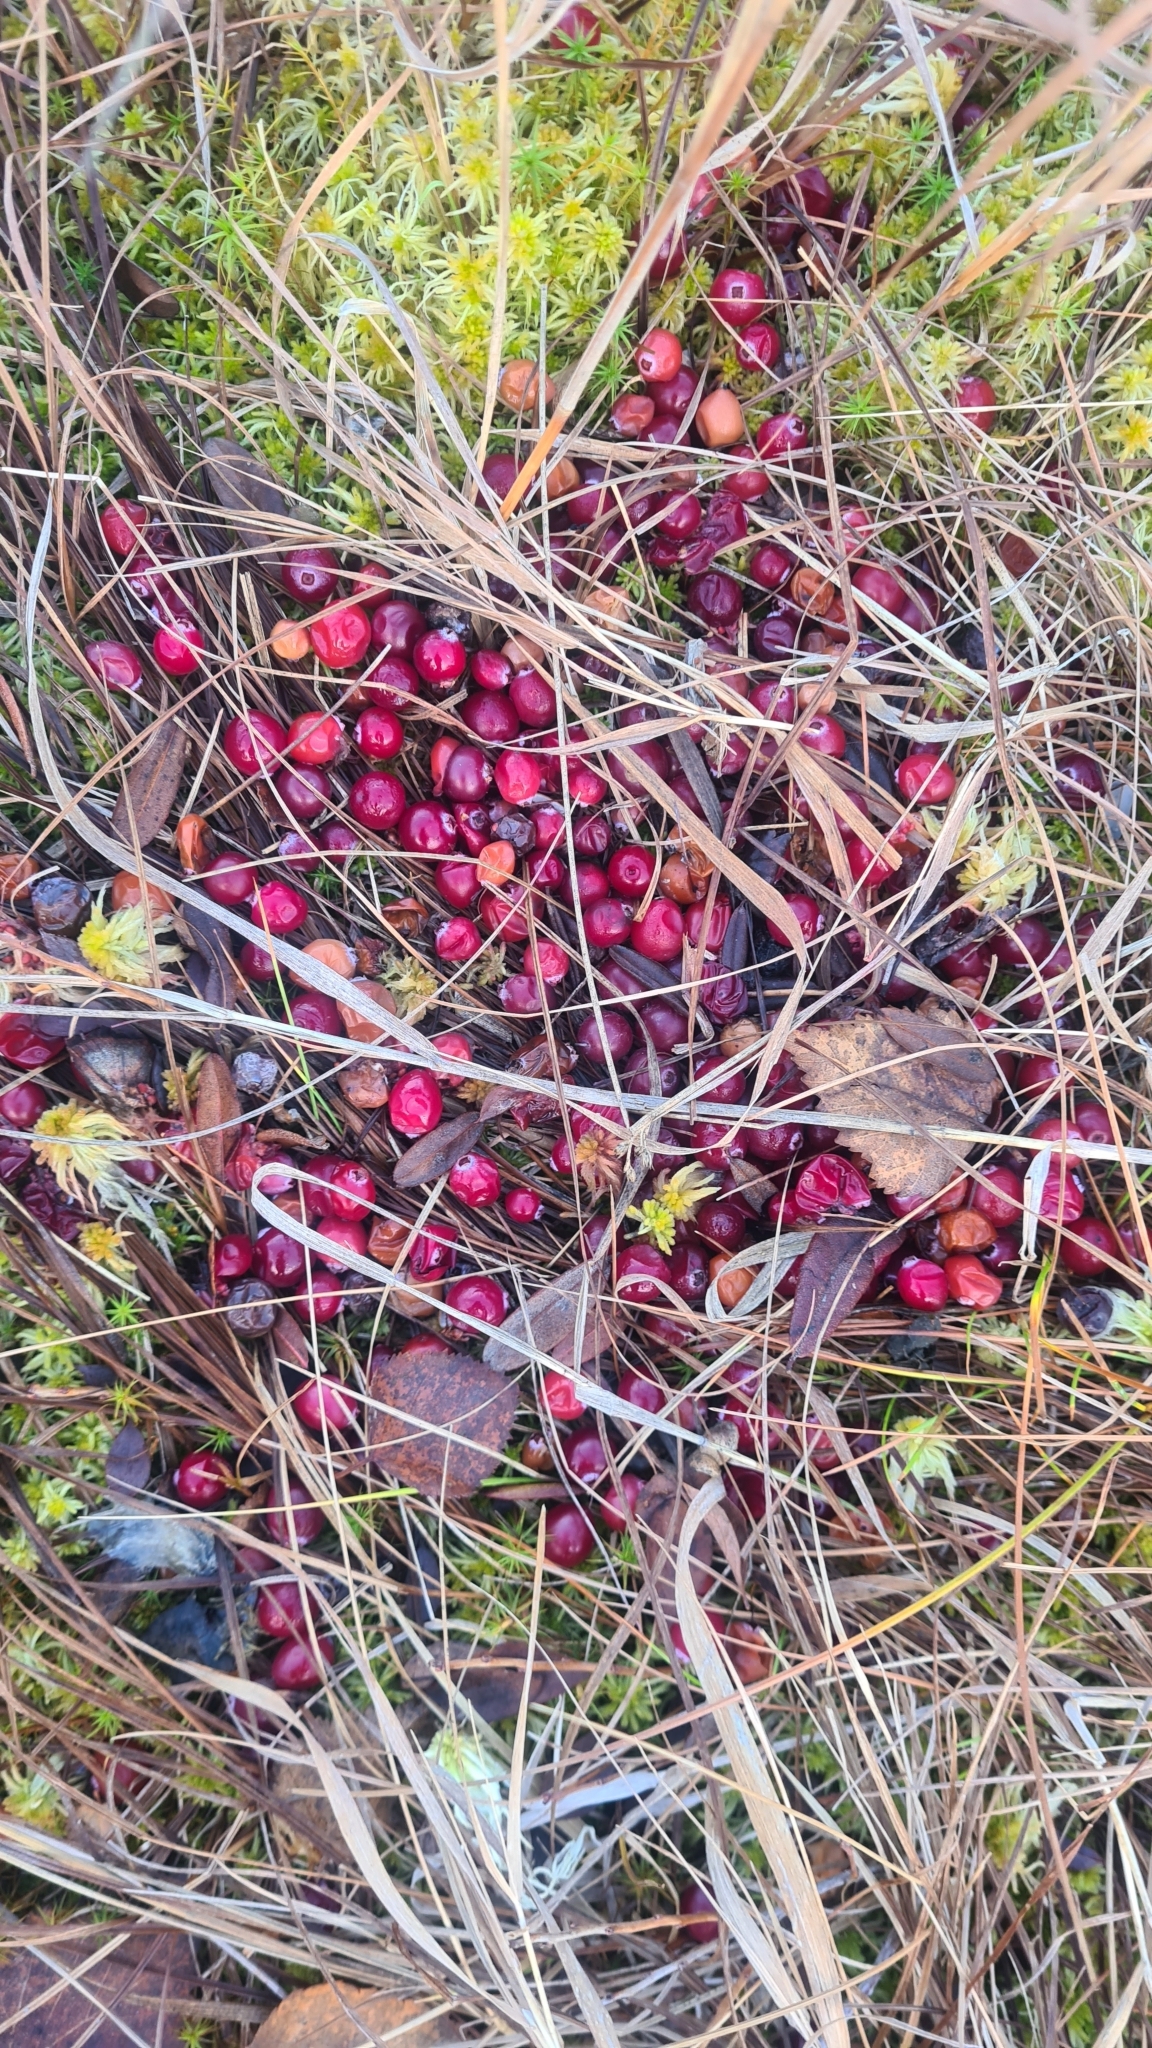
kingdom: Plantae
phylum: Tracheophyta
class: Magnoliopsida
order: Ericales
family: Ericaceae
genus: Vaccinium
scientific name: Vaccinium oxycoccos
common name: Cranberry
